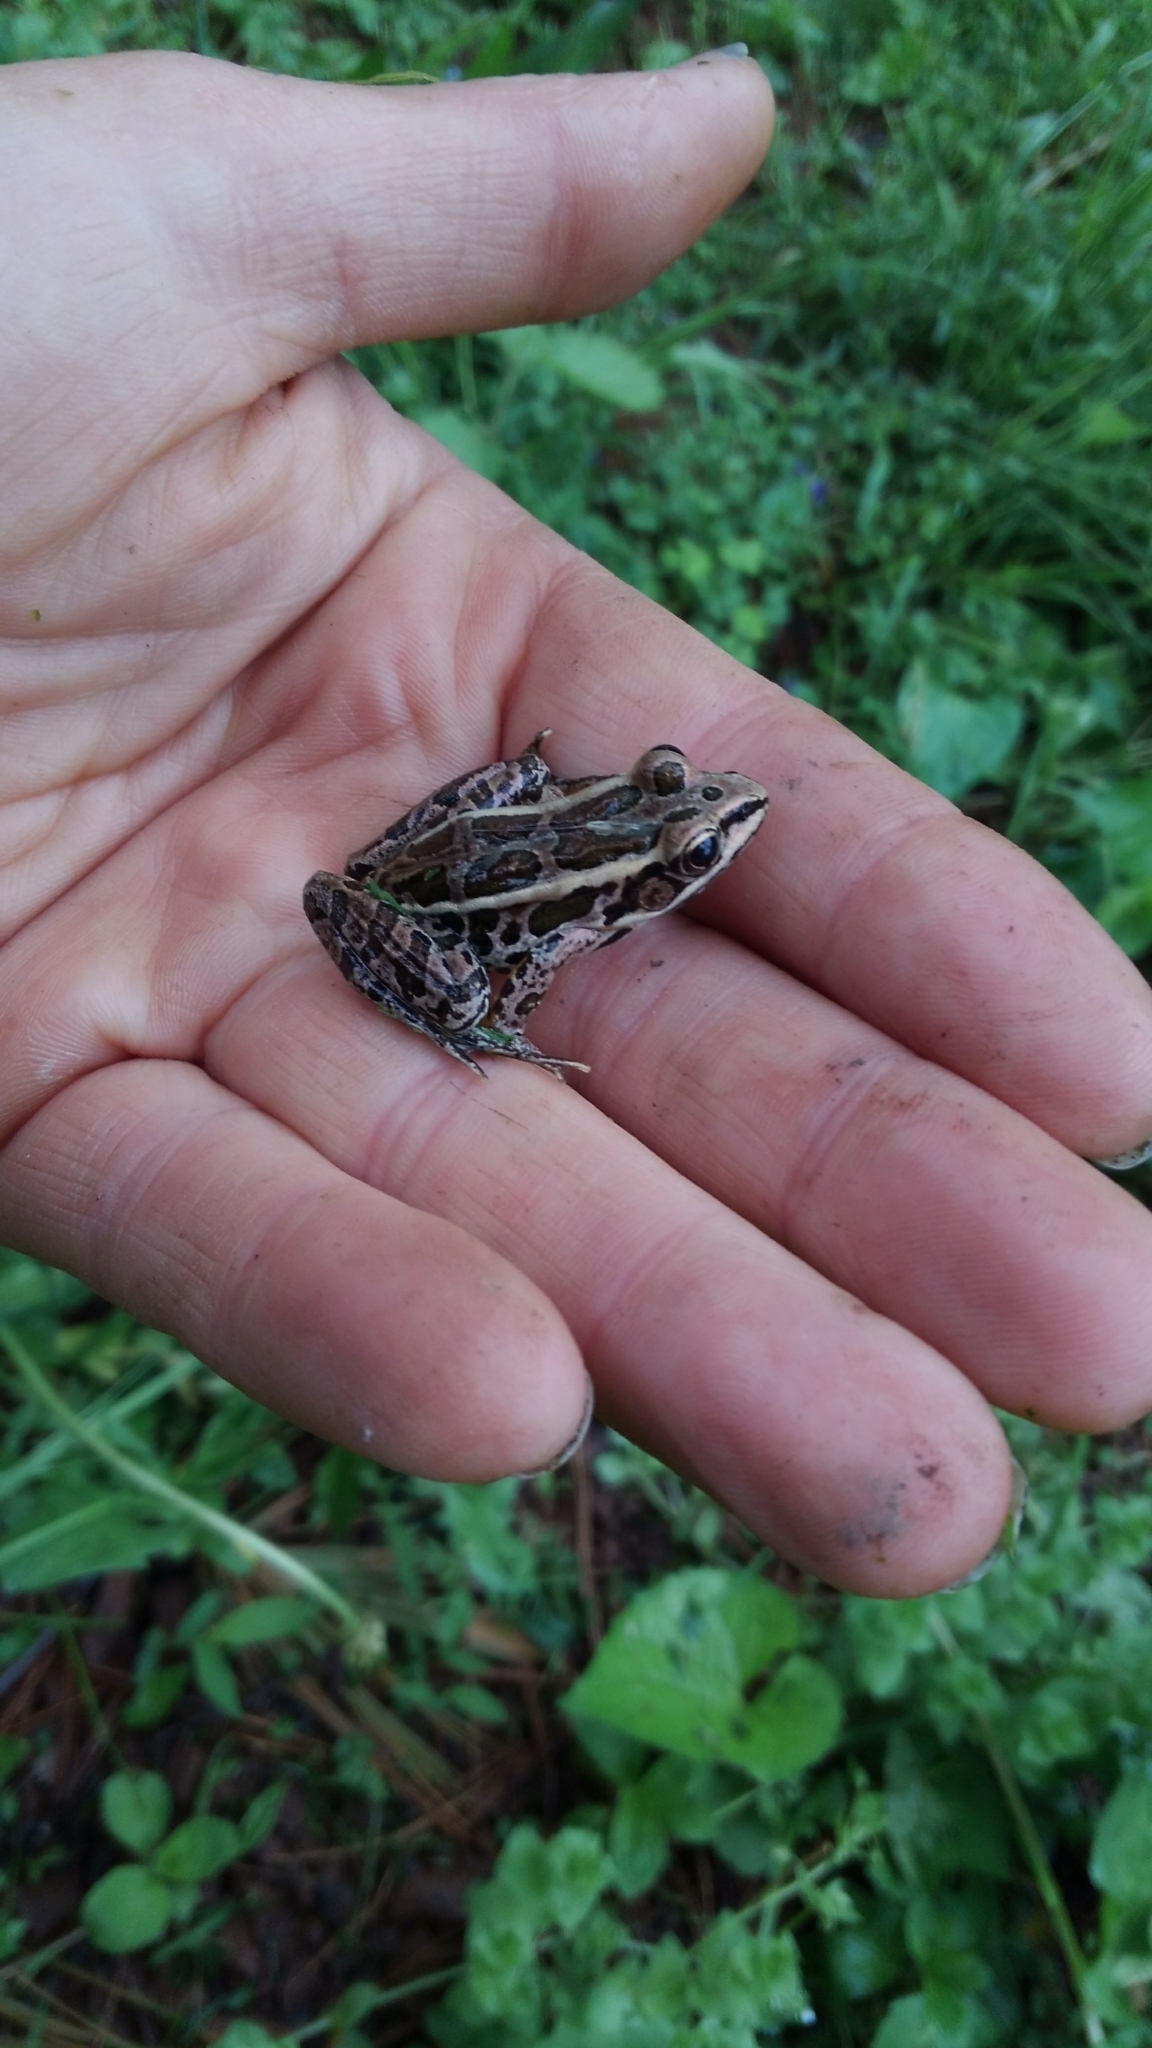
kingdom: Animalia
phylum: Chordata
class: Amphibia
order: Anura
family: Ranidae
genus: Lithobates
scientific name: Lithobates palustris
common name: Pickerel frog
